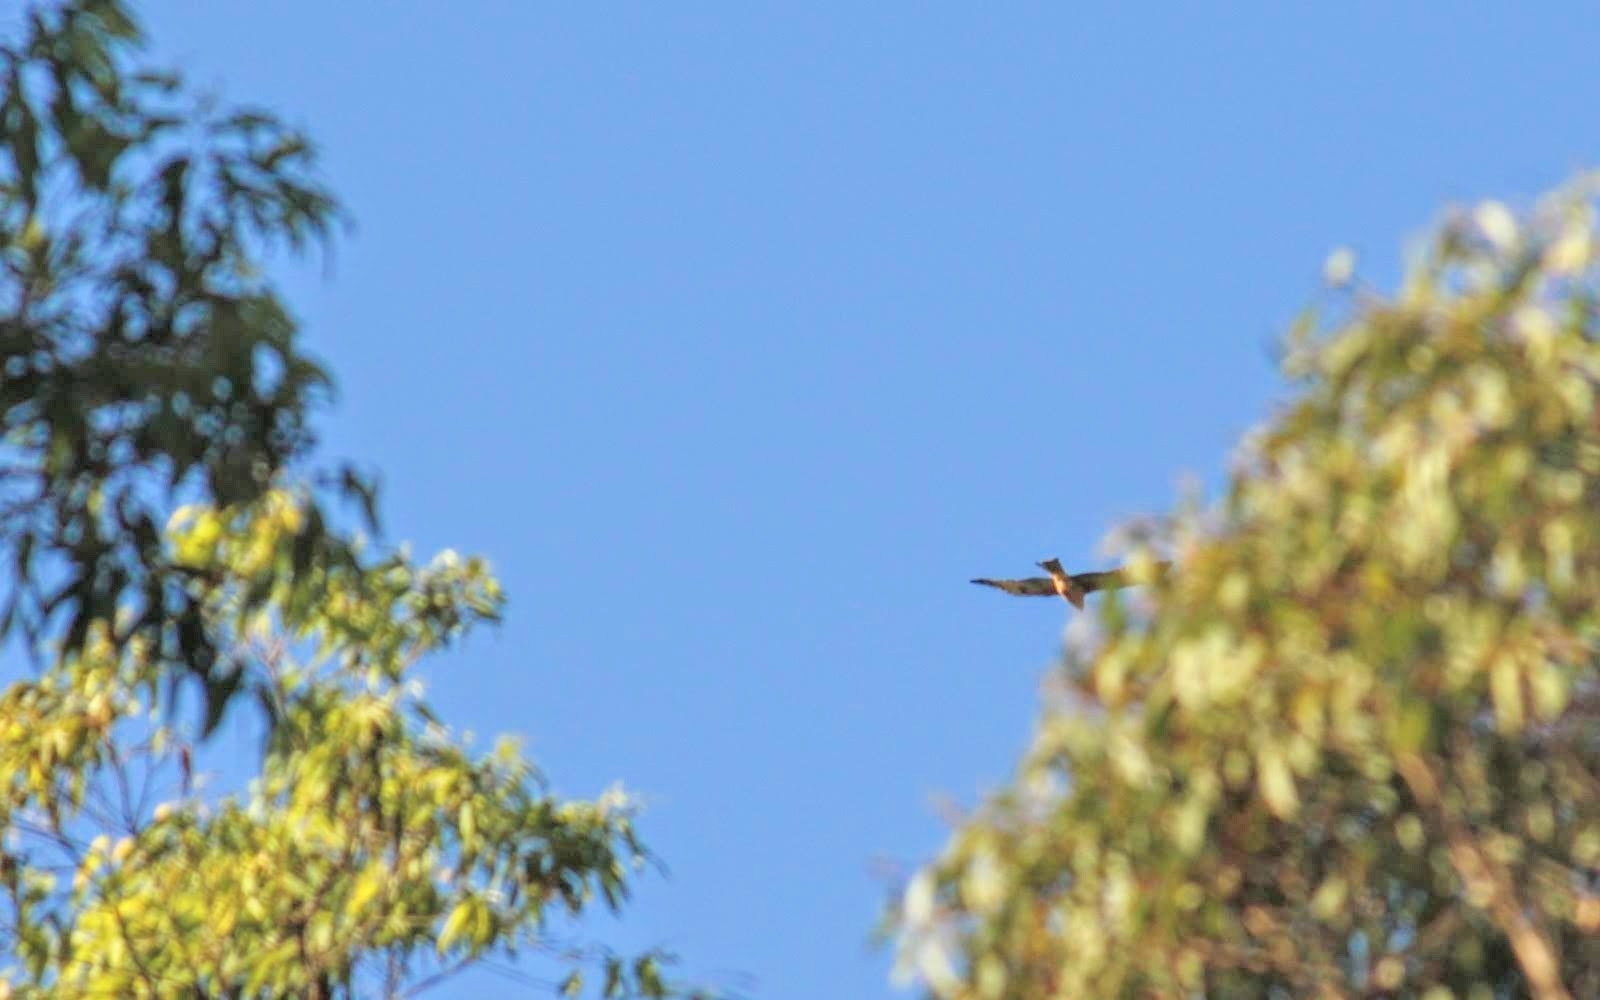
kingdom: Animalia
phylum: Chordata
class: Aves
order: Accipitriformes
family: Accipitridae
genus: Milvus
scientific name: Milvus migrans
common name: Black kite
